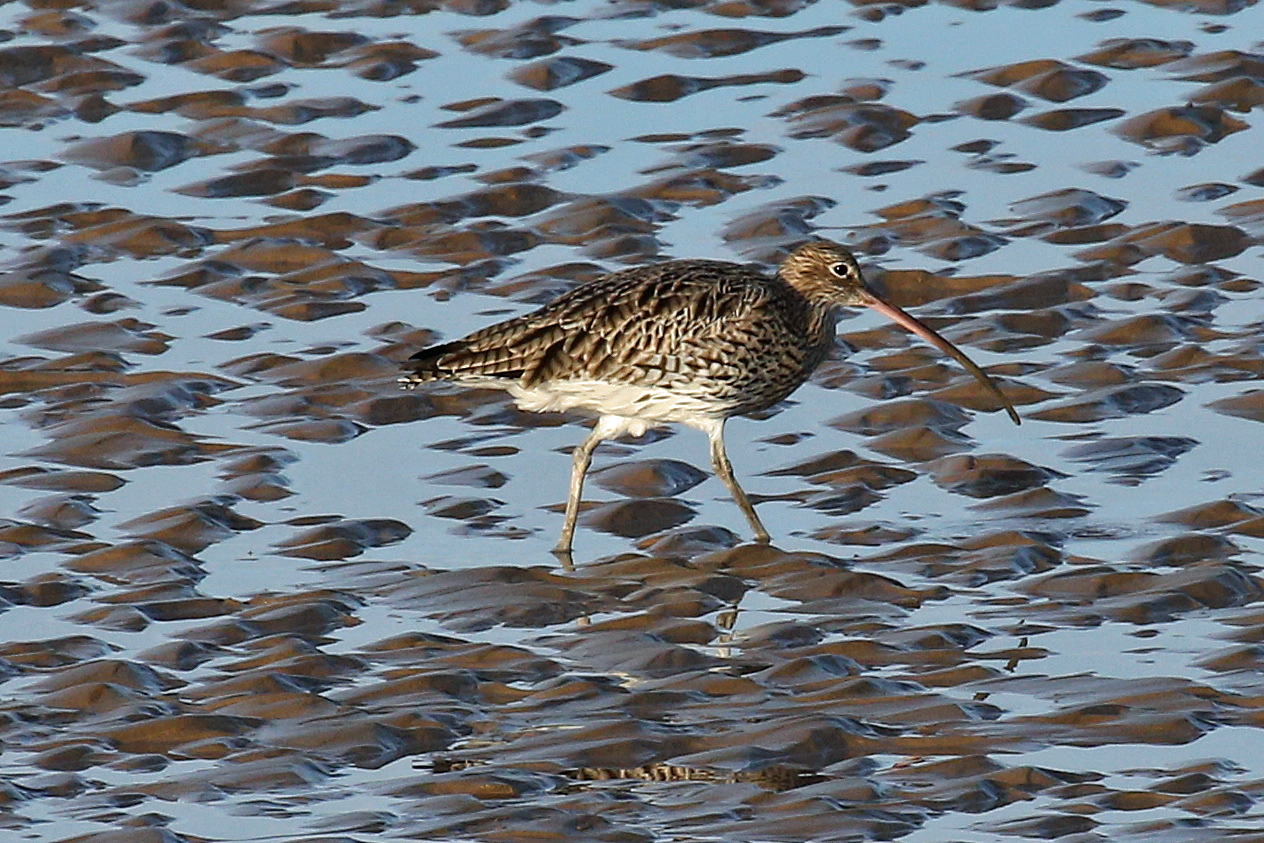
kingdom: Animalia
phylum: Chordata
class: Aves
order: Charadriiformes
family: Scolopacidae
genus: Numenius
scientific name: Numenius arquata
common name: Eurasian curlew
